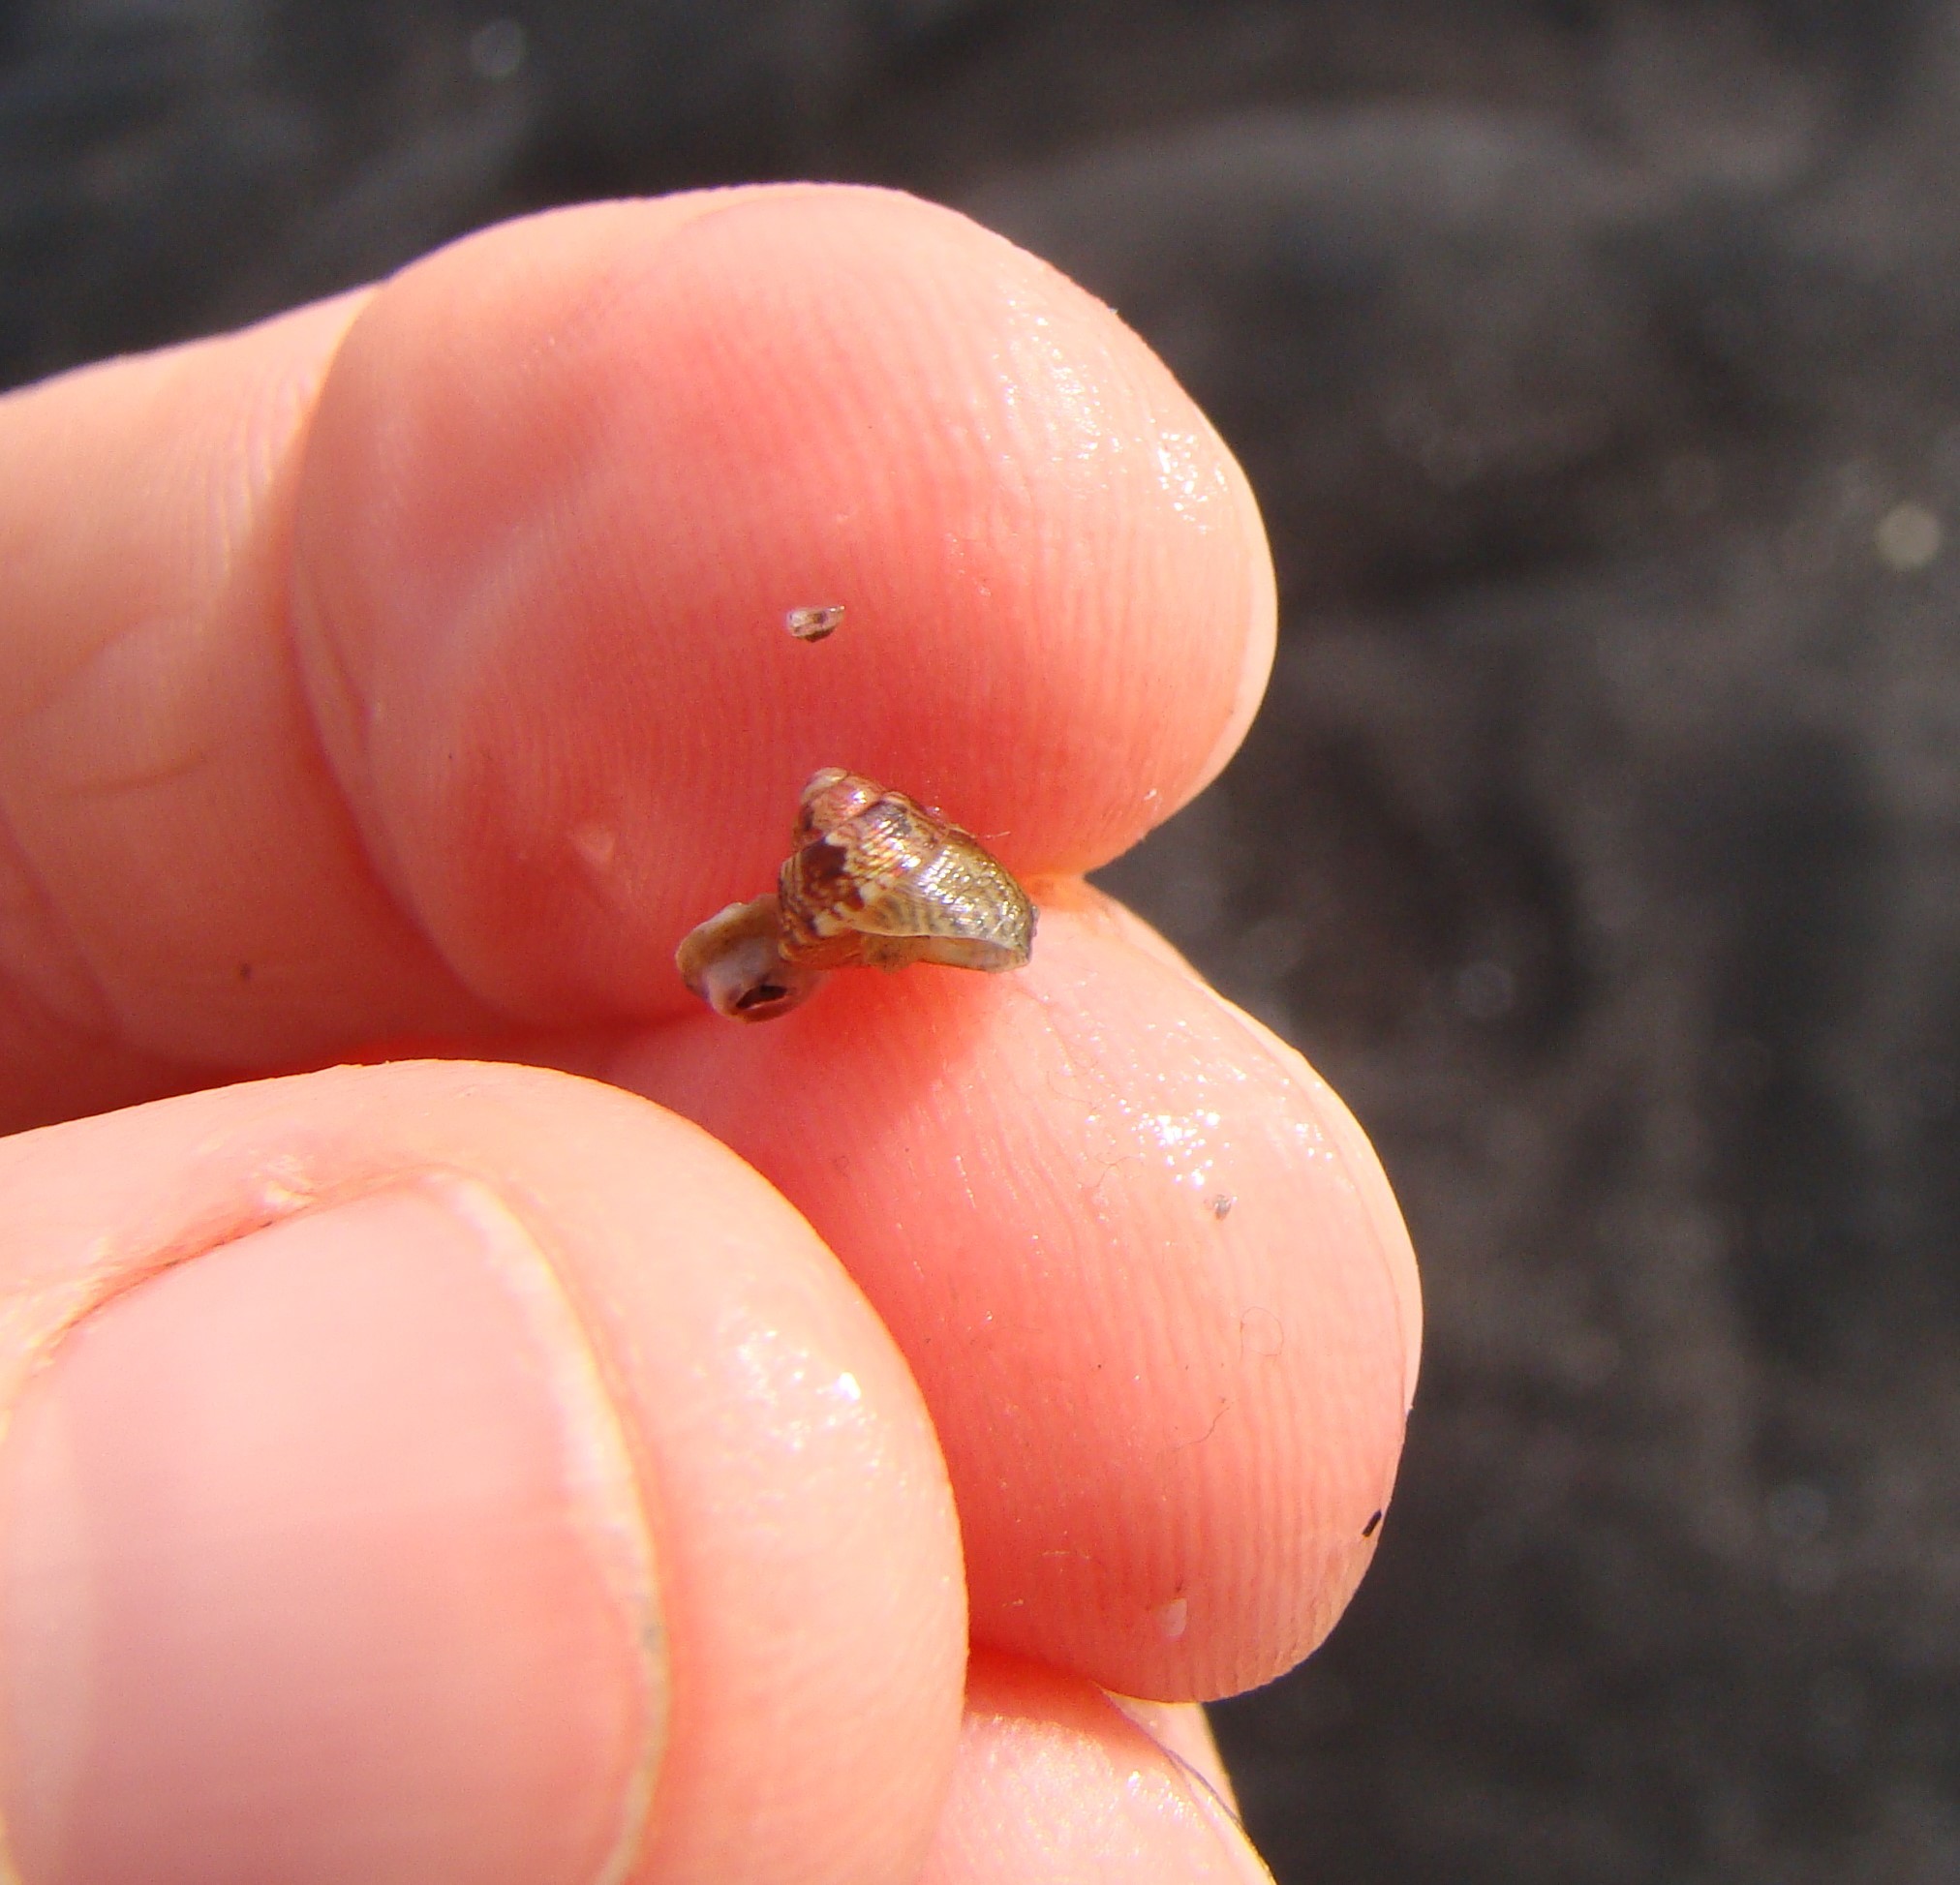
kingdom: Animalia
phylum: Mollusca
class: Gastropoda
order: Trochida
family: Trochidae
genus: Micrelenchus
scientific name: Micrelenchus sanguineus
